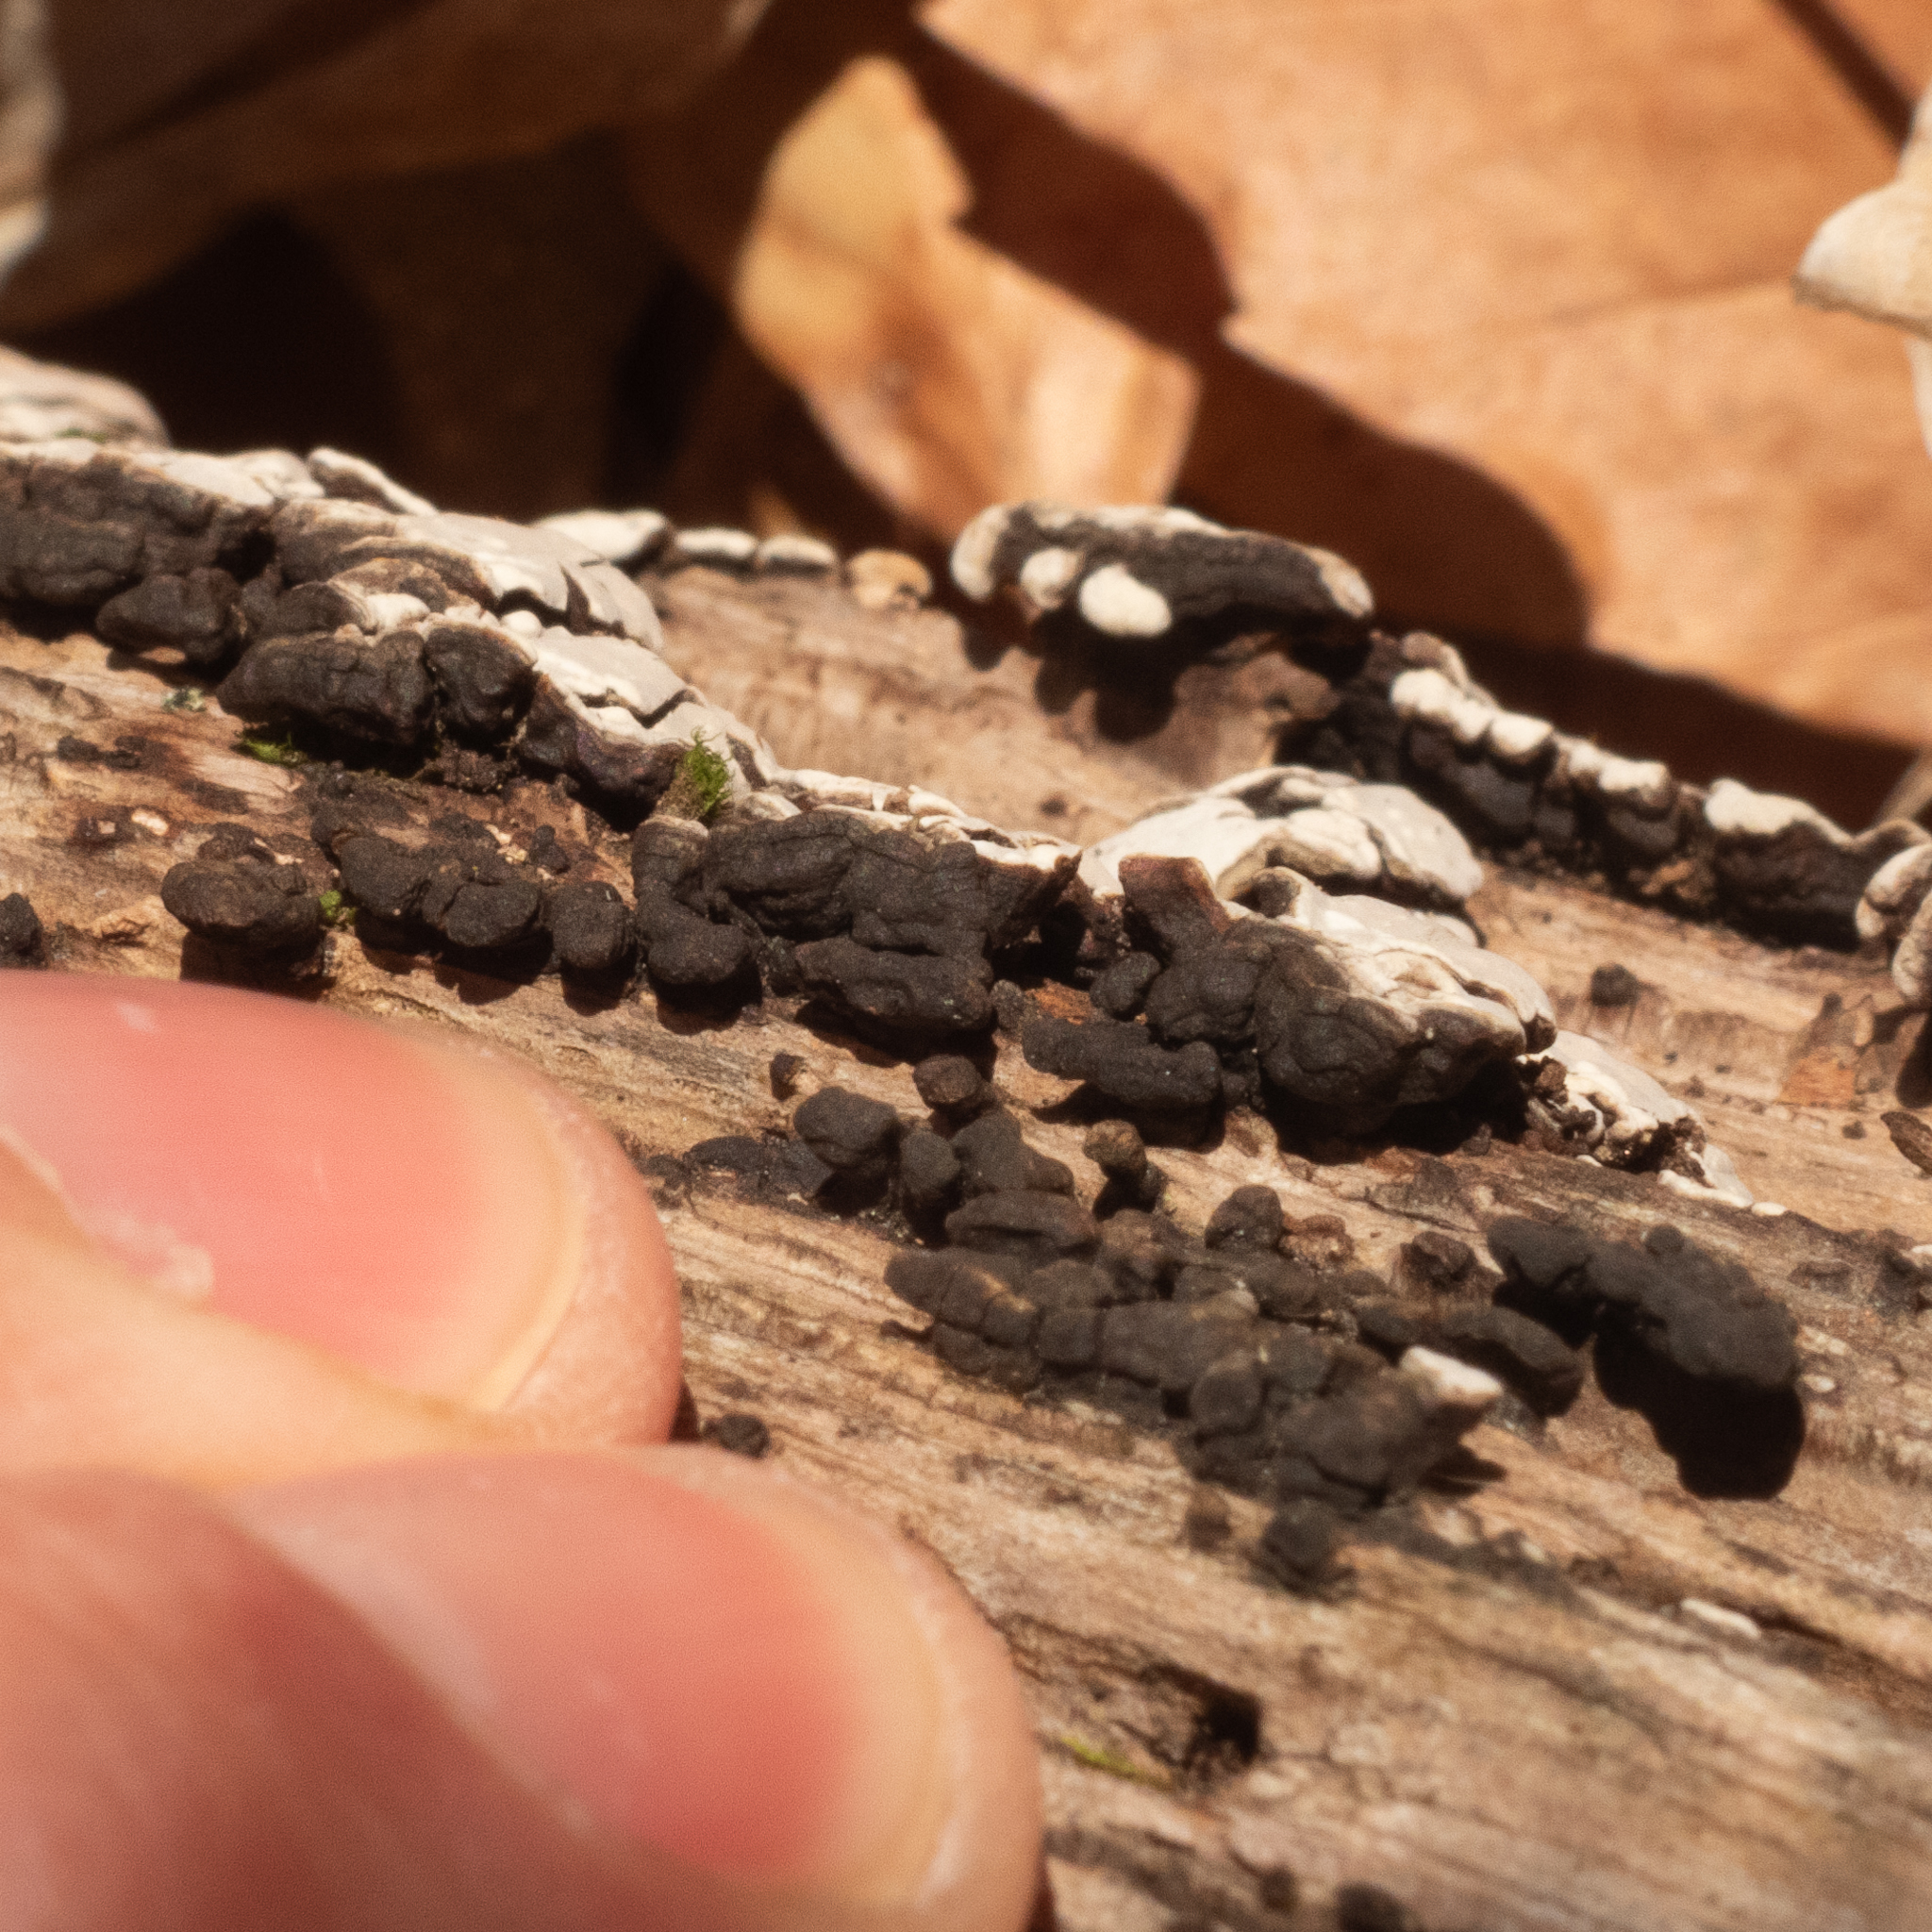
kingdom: Fungi
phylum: Basidiomycota
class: Agaricomycetes
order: Russulales
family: Stereaceae
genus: Xylobolus
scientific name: Xylobolus frustulatus
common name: Ceramic parchment
